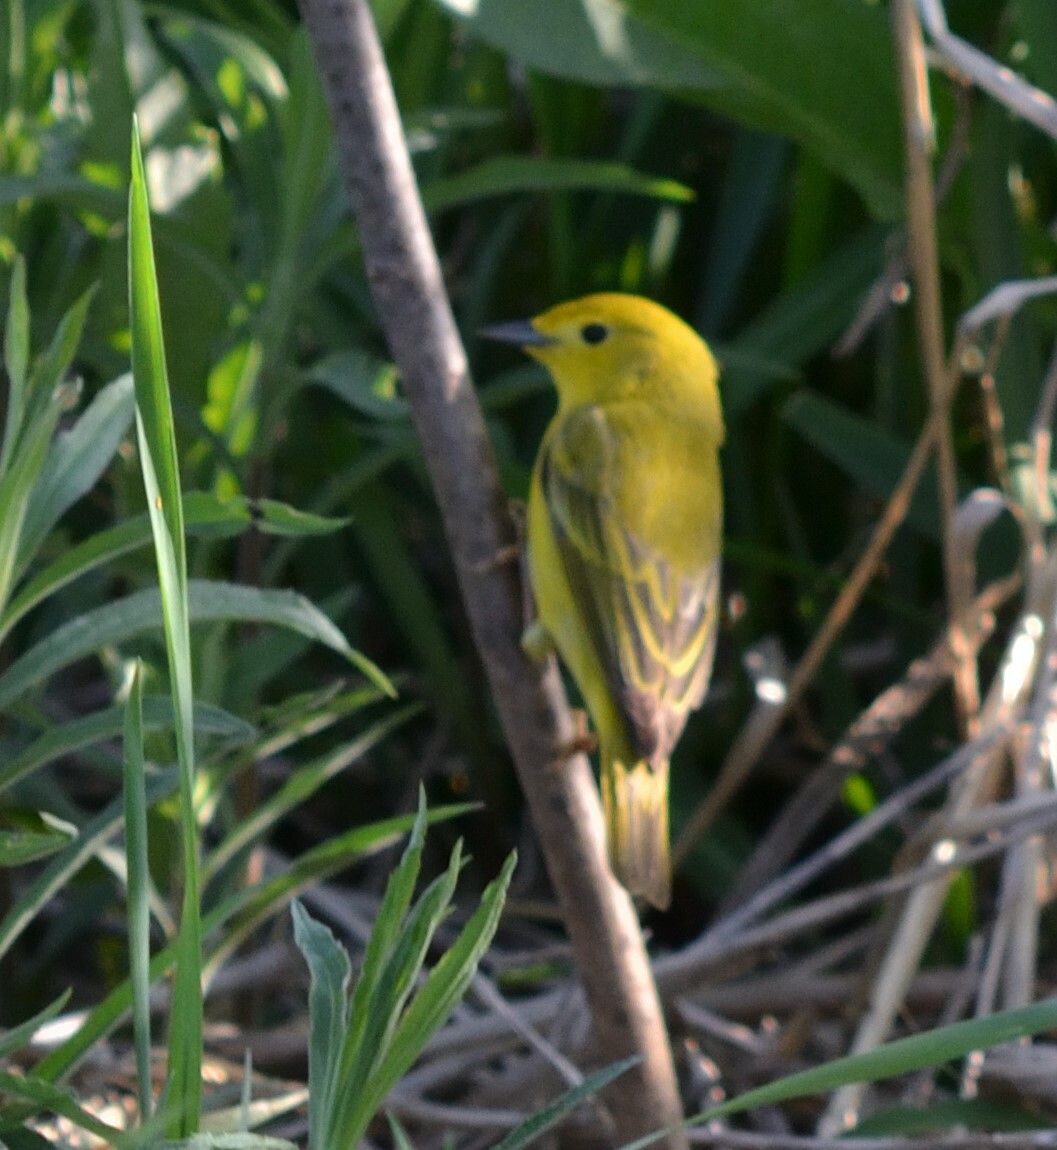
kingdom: Animalia
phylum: Chordata
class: Aves
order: Passeriformes
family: Parulidae
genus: Setophaga
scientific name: Setophaga petechia
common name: Yellow warbler
